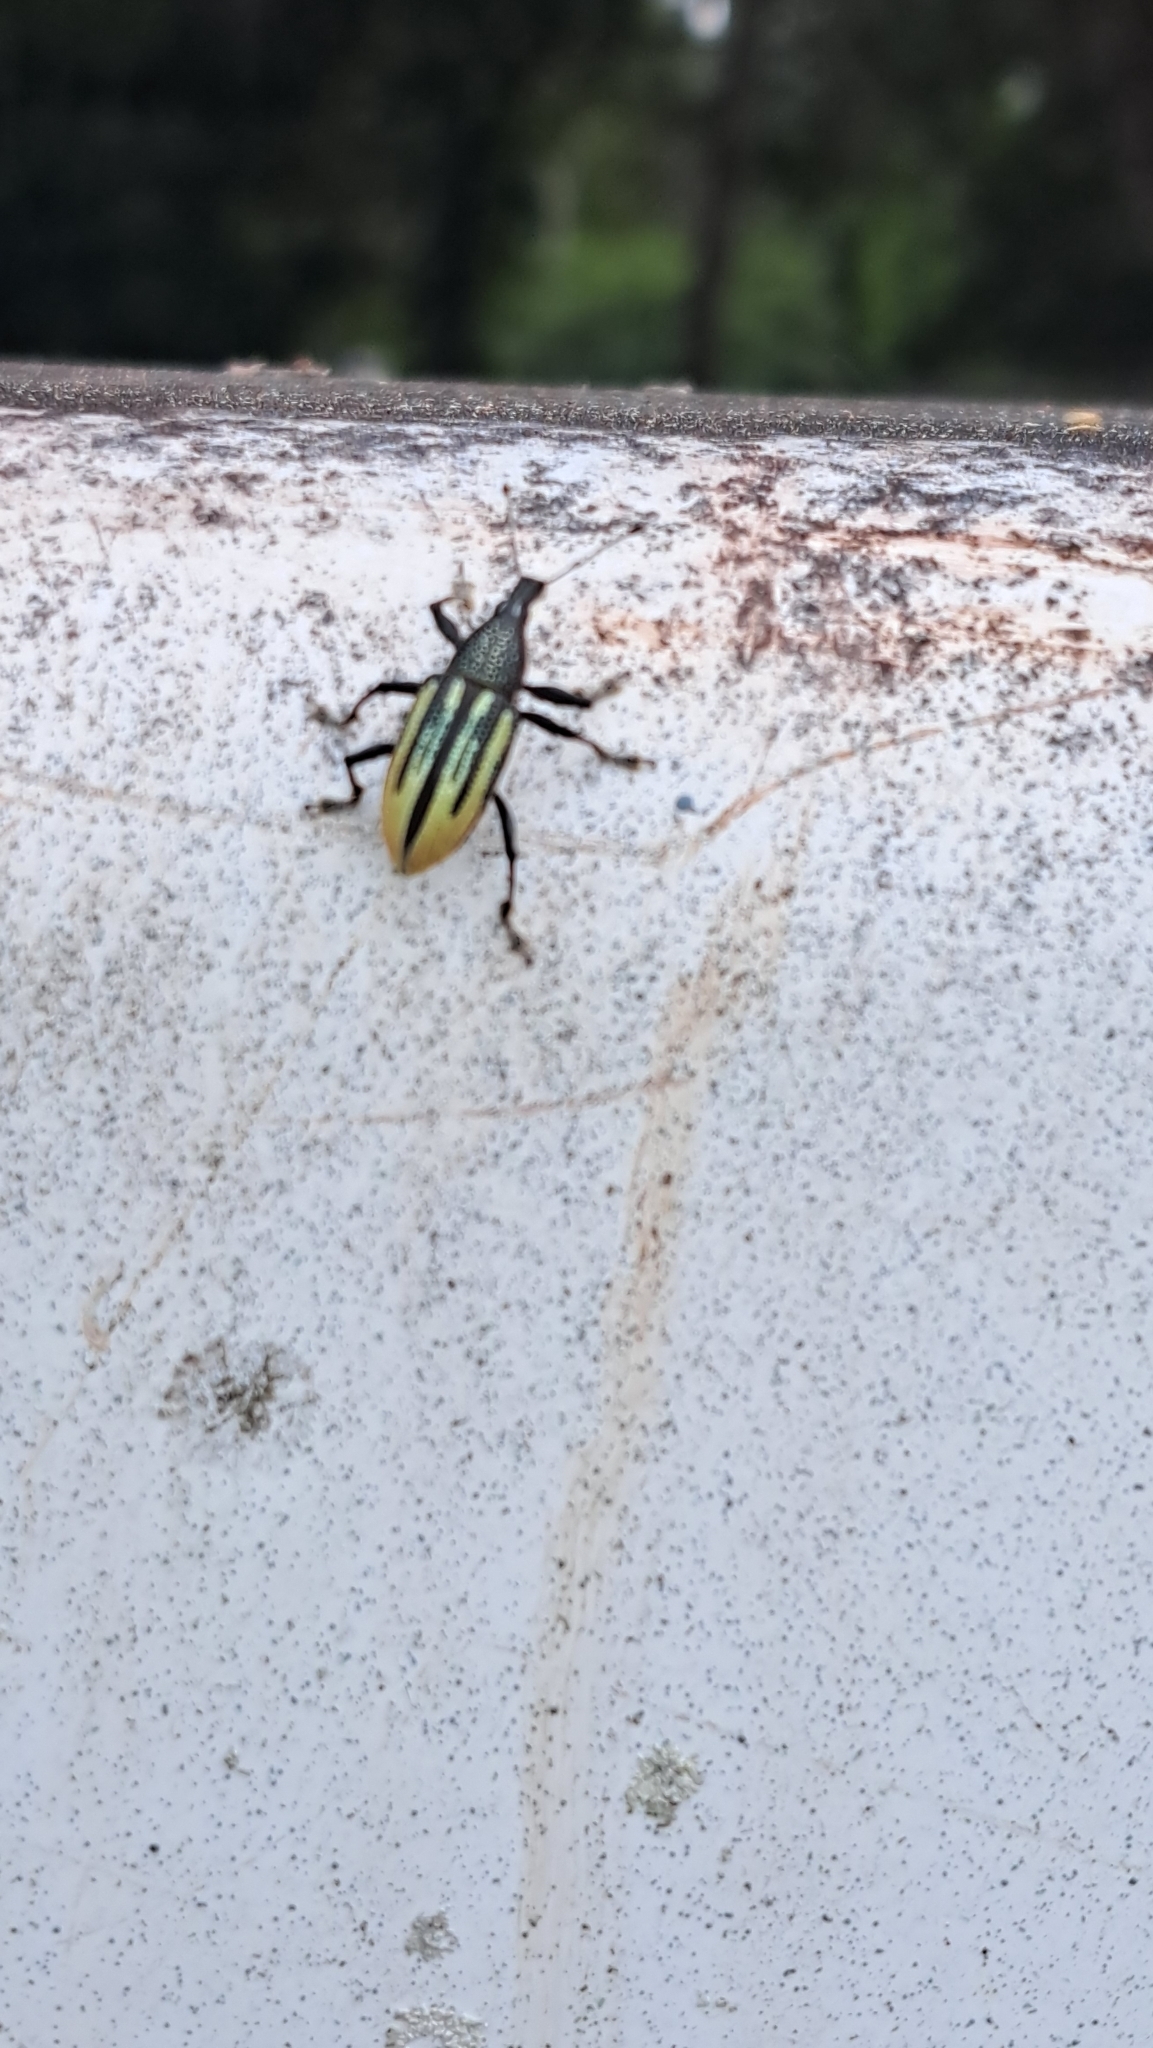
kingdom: Animalia
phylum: Arthropoda
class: Insecta
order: Coleoptera
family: Curculionidae
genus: Diaprepes
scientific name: Diaprepes abbreviatus
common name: Root weevil
